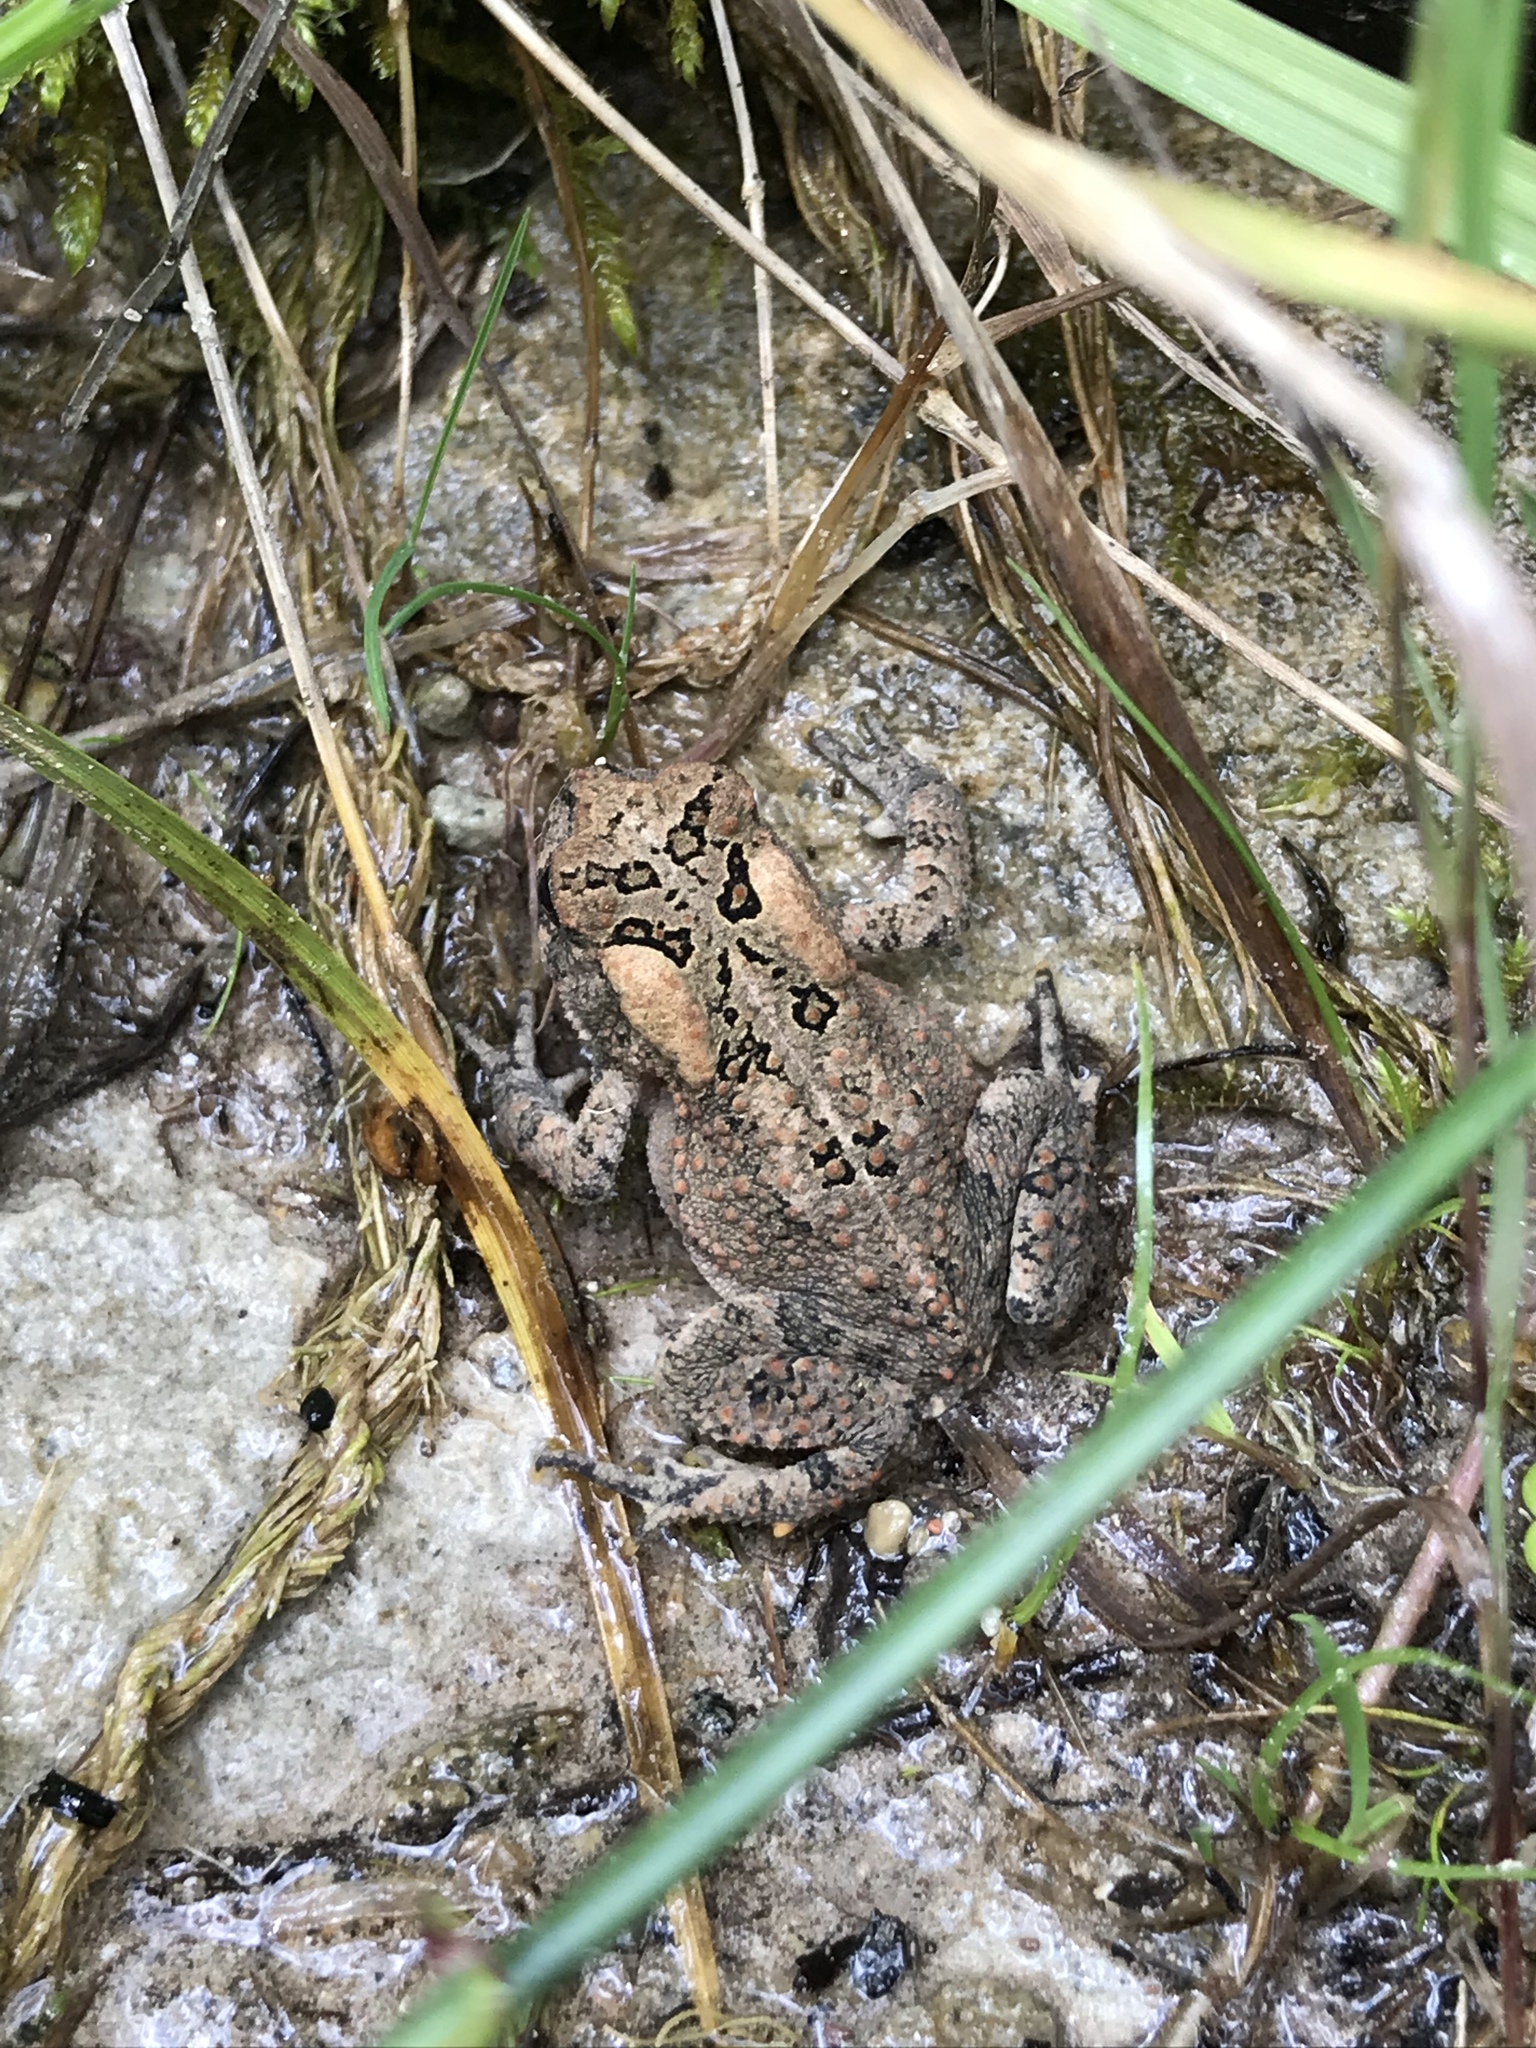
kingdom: Animalia
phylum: Chordata
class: Amphibia
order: Anura
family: Bufonidae
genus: Anaxyrus
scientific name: Anaxyrus americanus
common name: American toad
